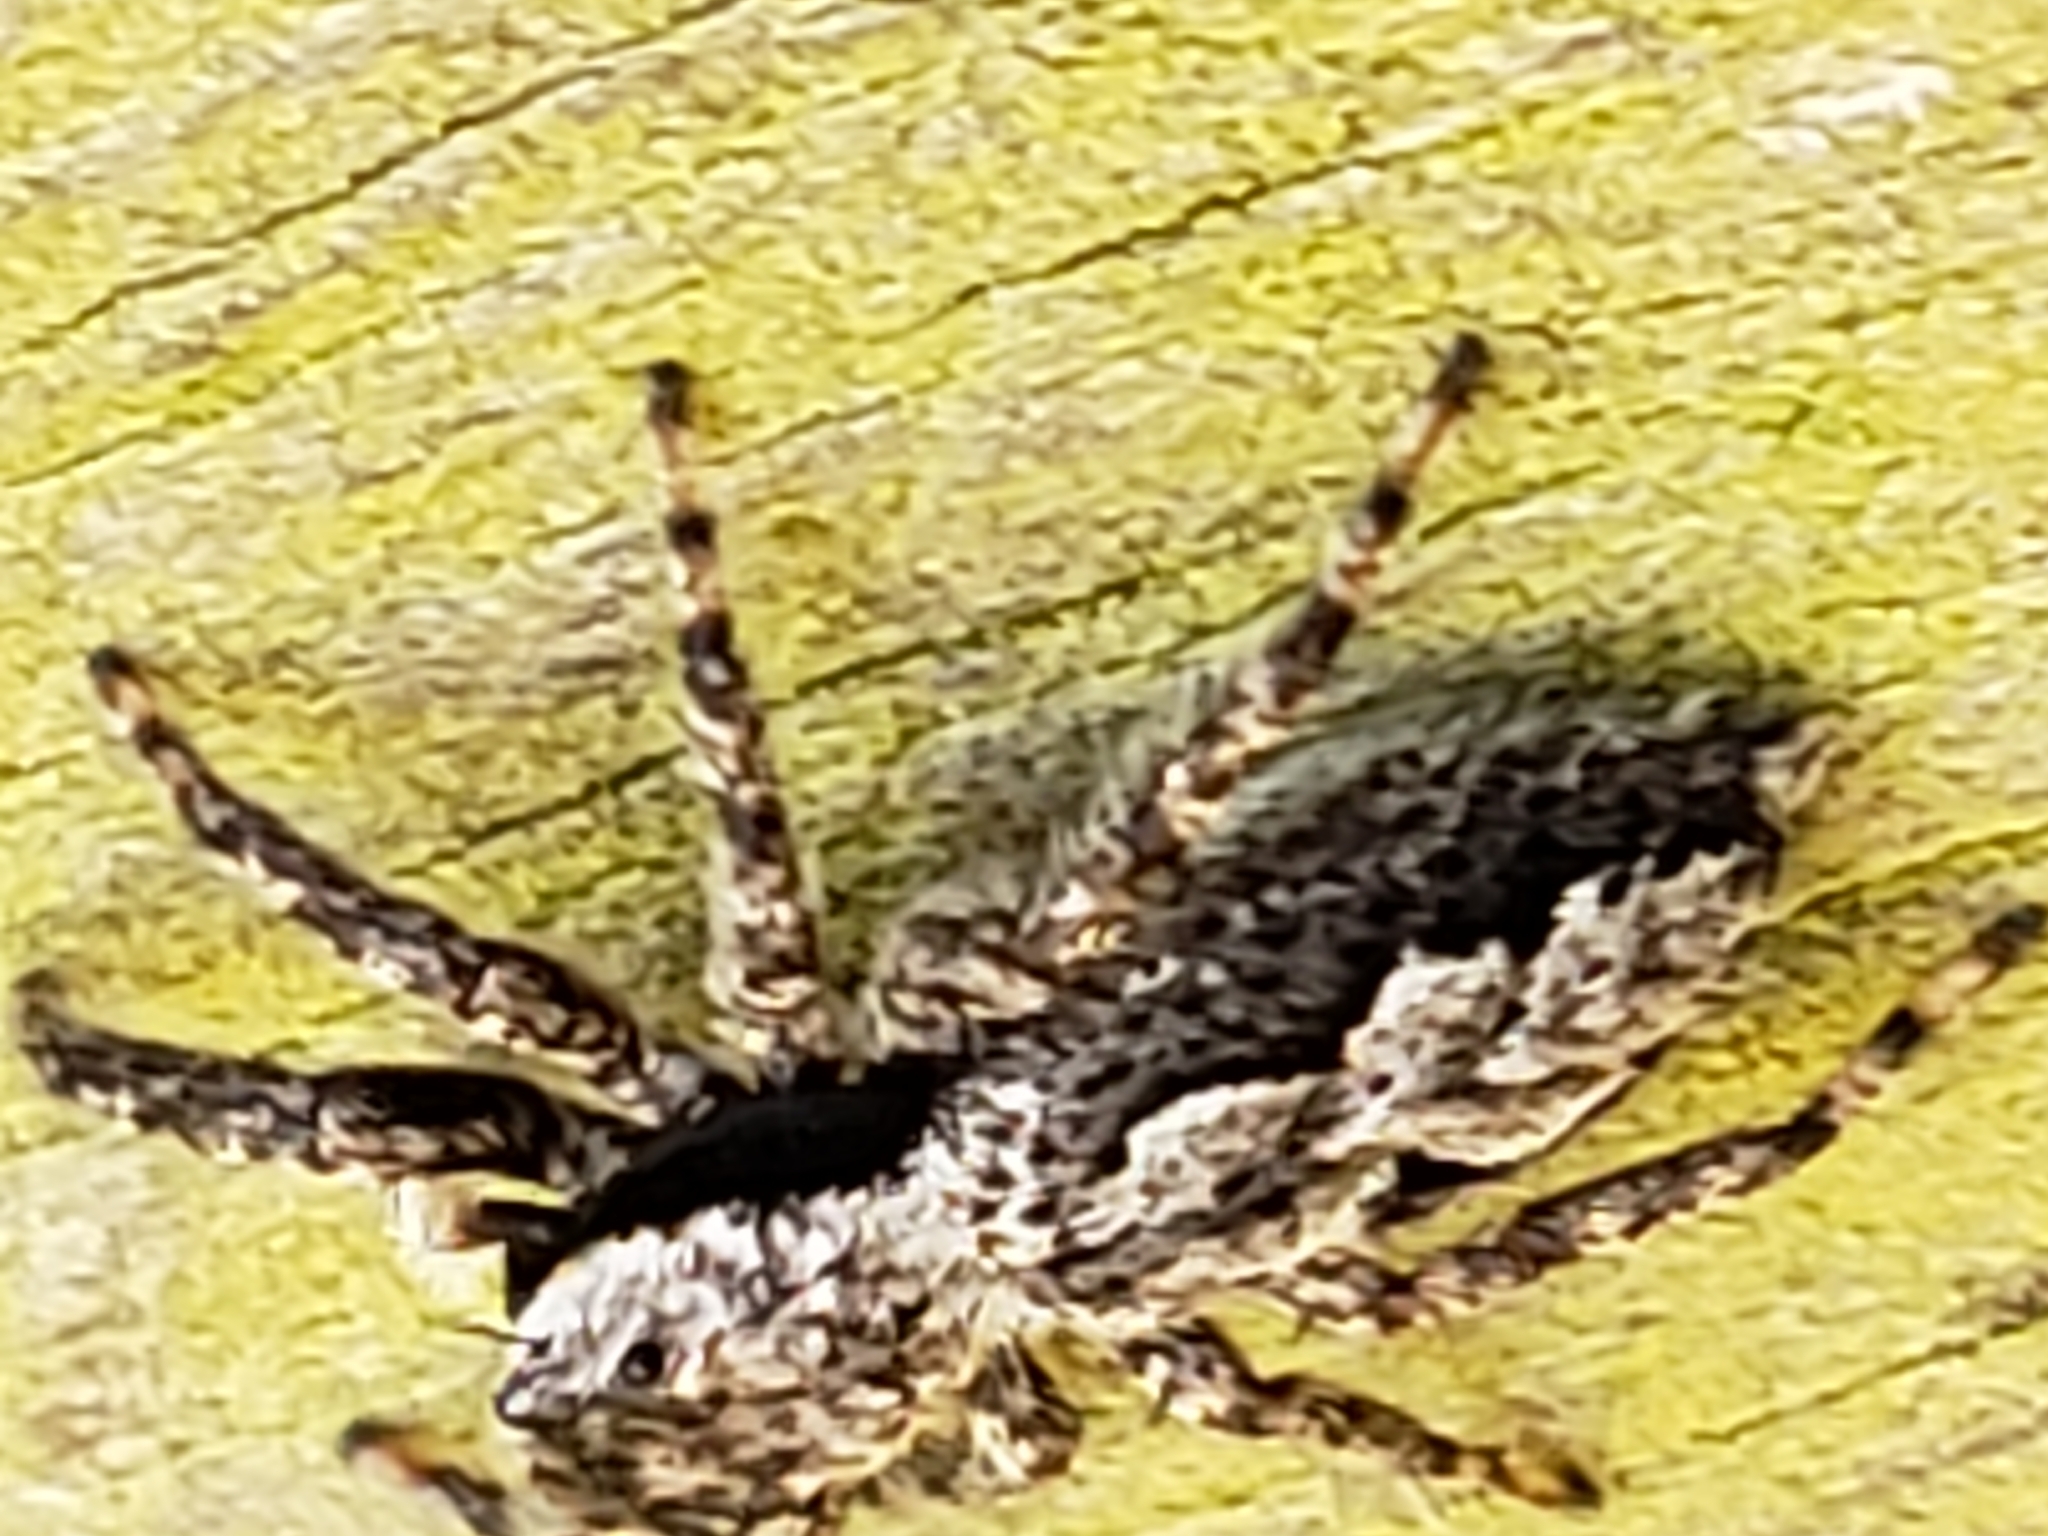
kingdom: Animalia
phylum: Arthropoda
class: Arachnida
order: Araneae
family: Salticidae
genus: Platycryptus
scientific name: Platycryptus undatus
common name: Tan jumping spider
